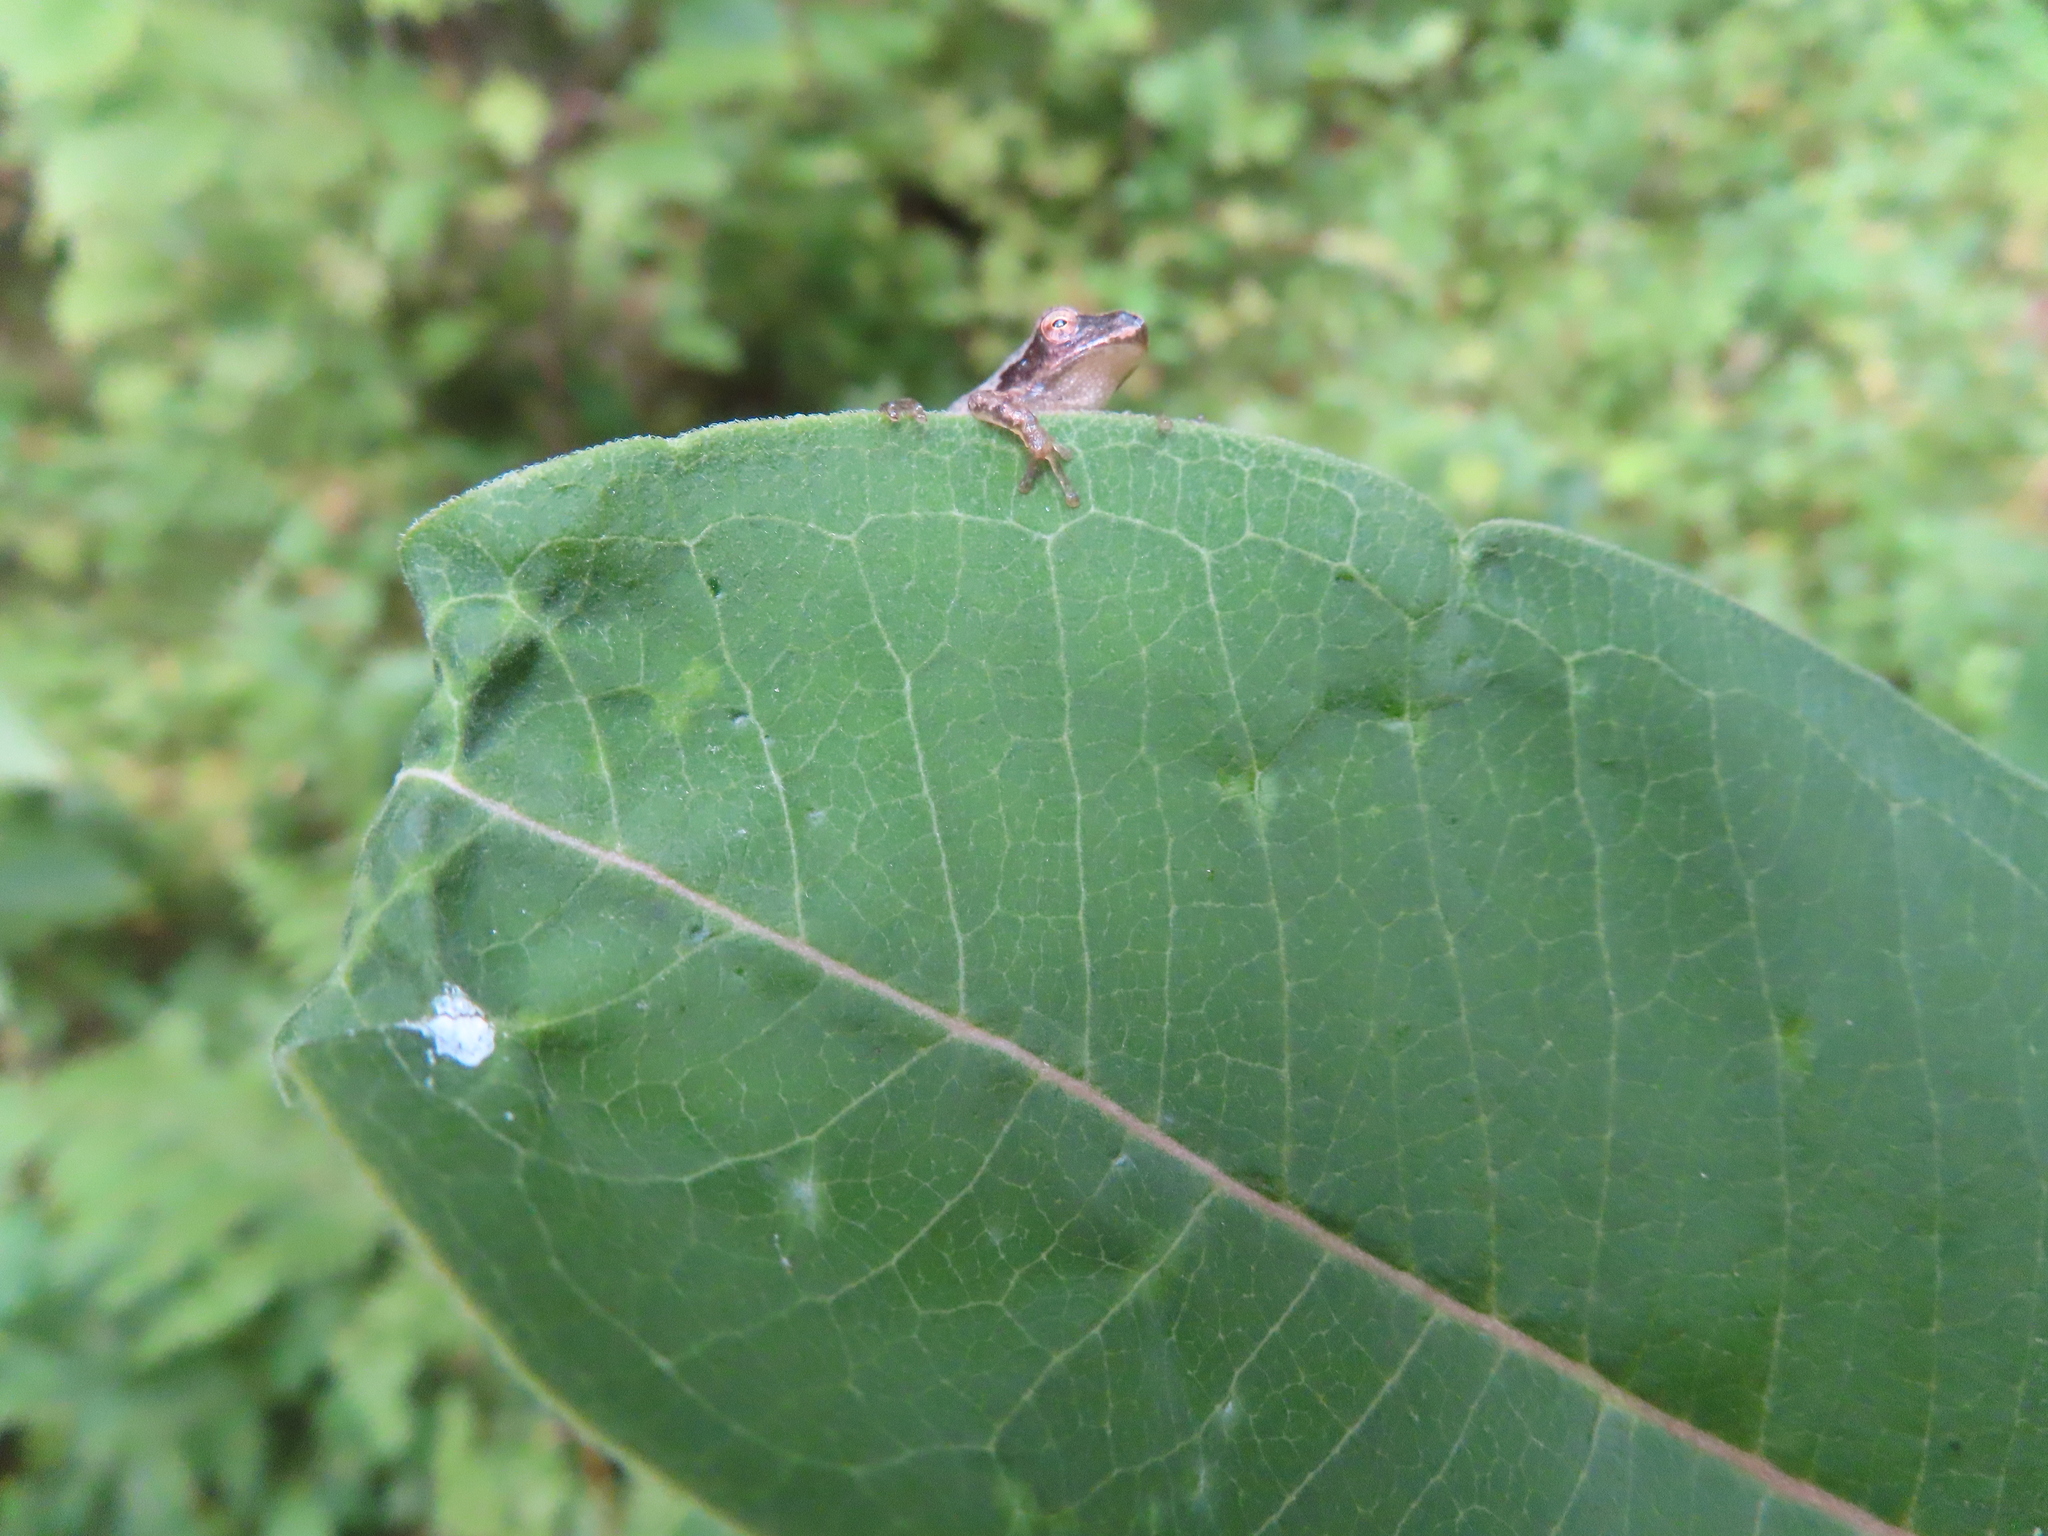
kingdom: Animalia
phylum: Chordata
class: Amphibia
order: Anura
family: Hylidae
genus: Pseudacris
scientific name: Pseudacris crucifer
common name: Spring peeper
